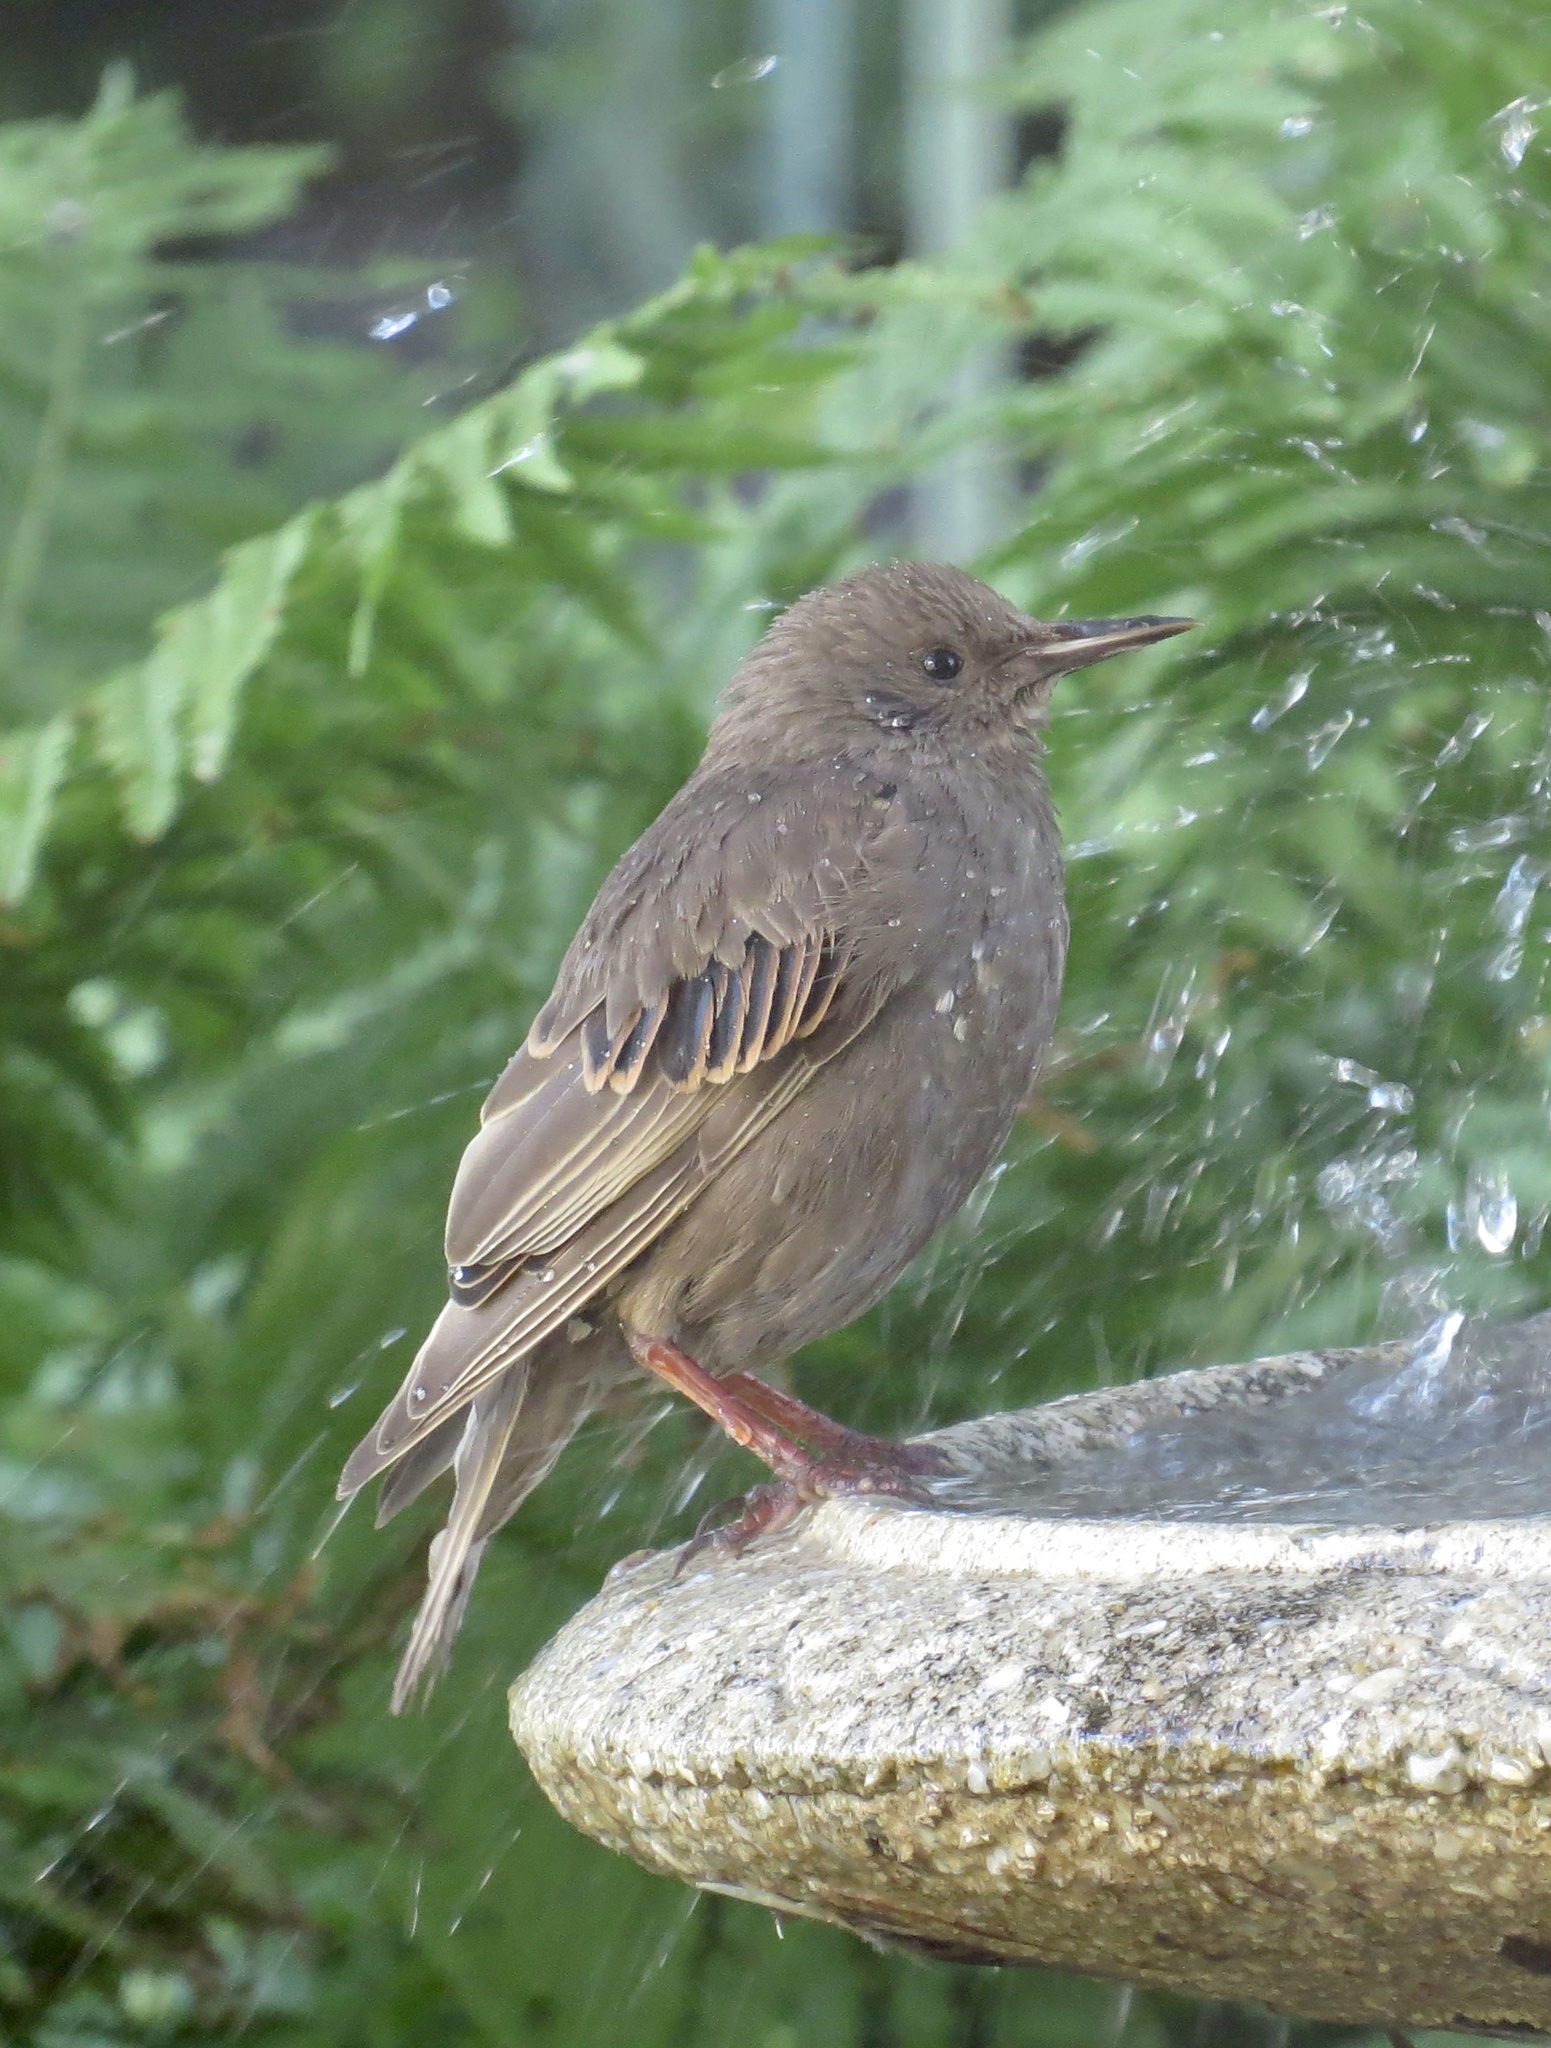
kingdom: Animalia
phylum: Chordata
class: Aves
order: Passeriformes
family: Sturnidae
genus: Sturnus
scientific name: Sturnus vulgaris
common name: Common starling
